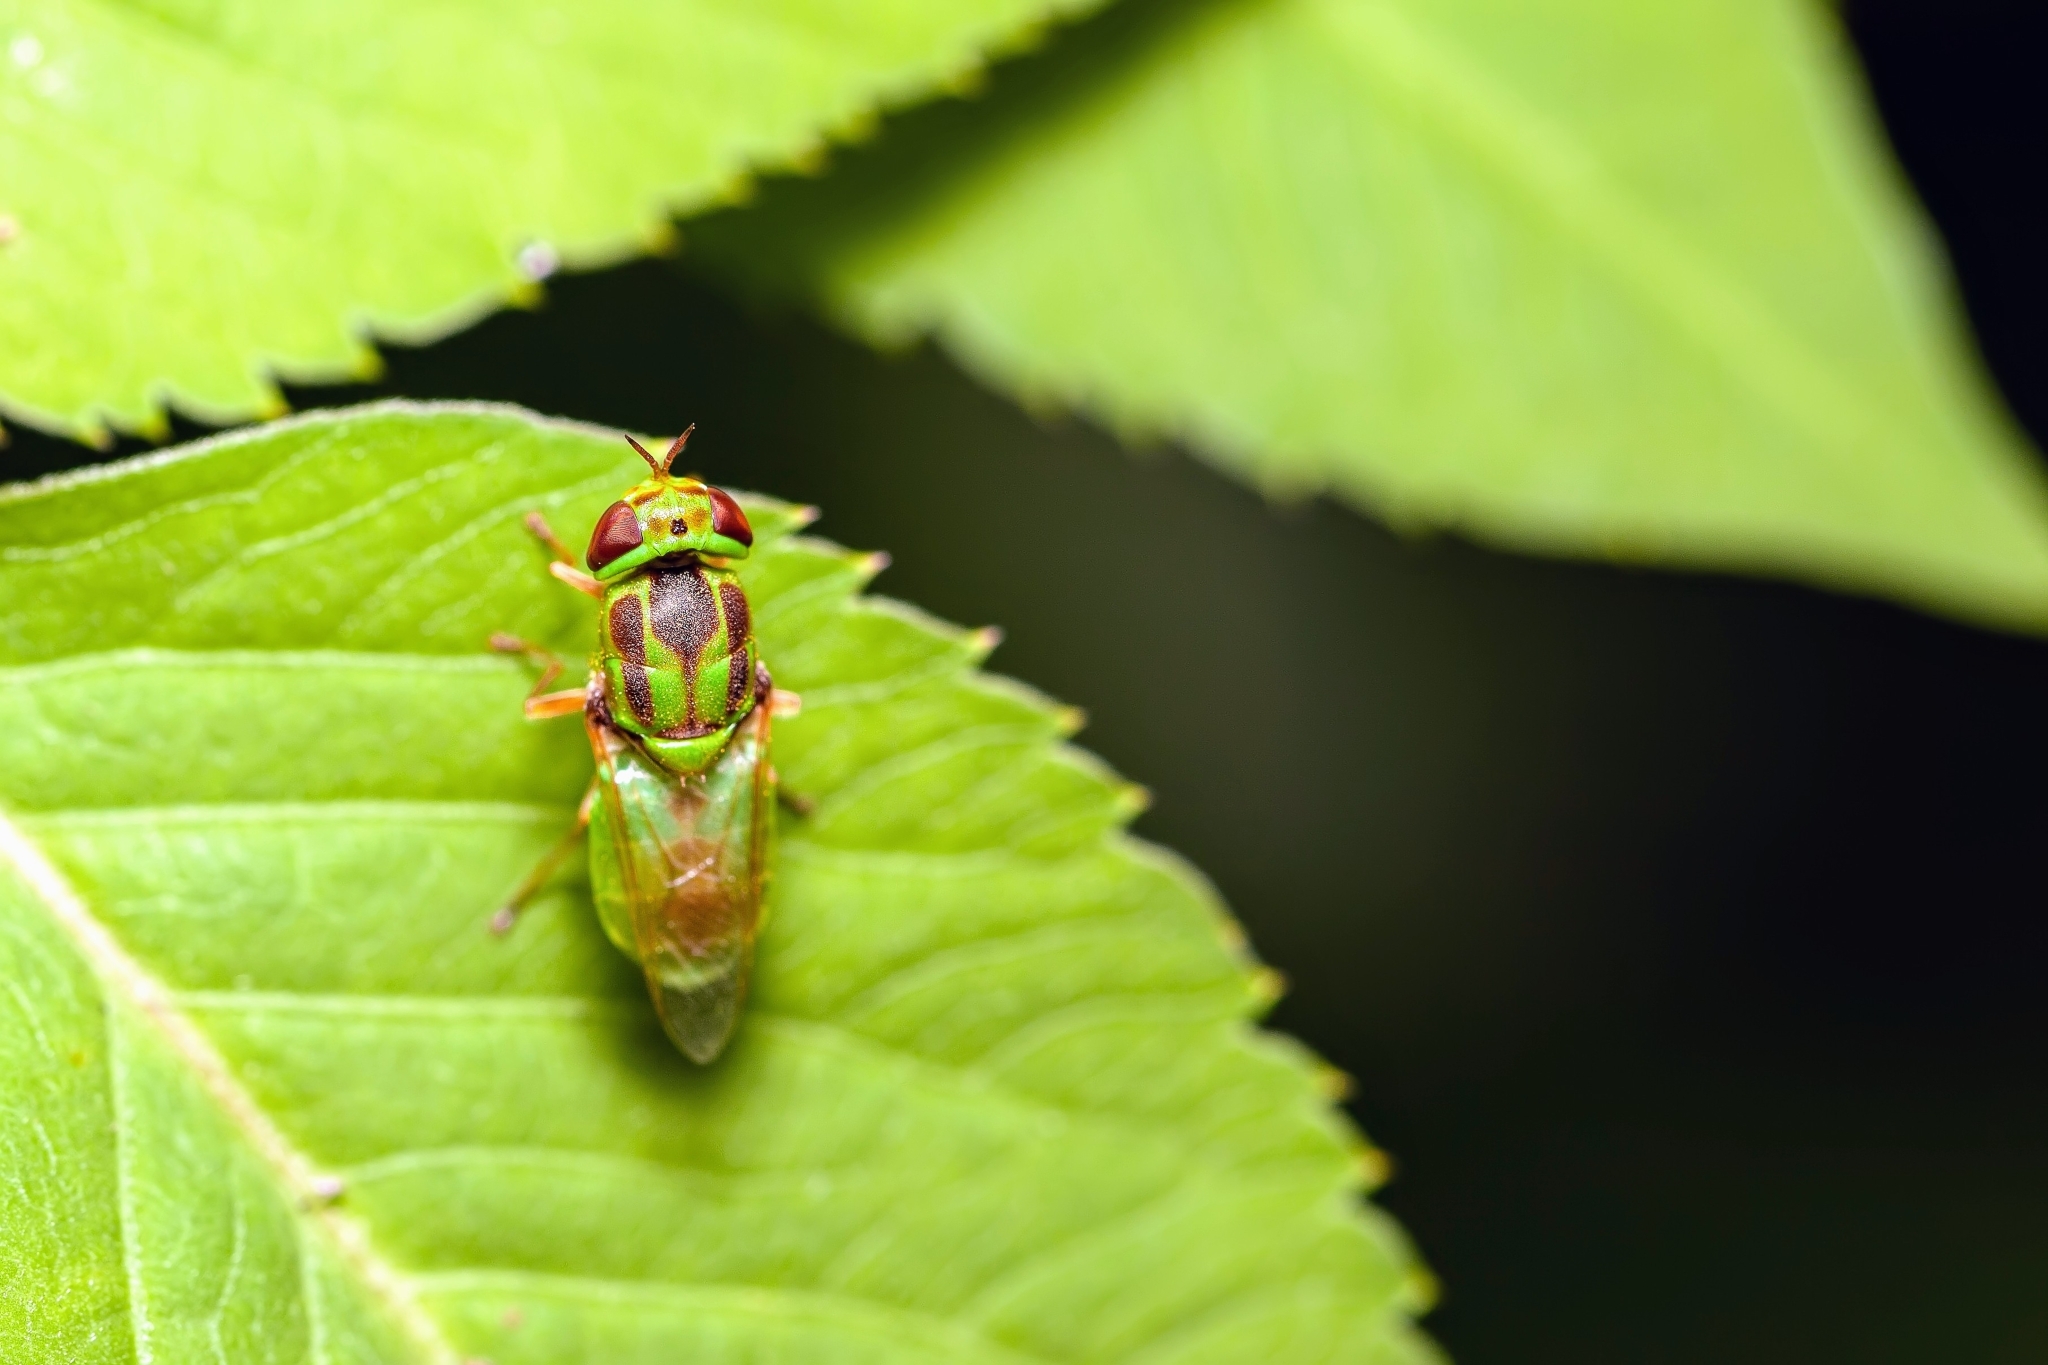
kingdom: Animalia
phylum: Arthropoda
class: Insecta
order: Diptera
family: Stratiomyidae
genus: Hedriodiscus
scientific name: Hedriodiscus trivittatus
